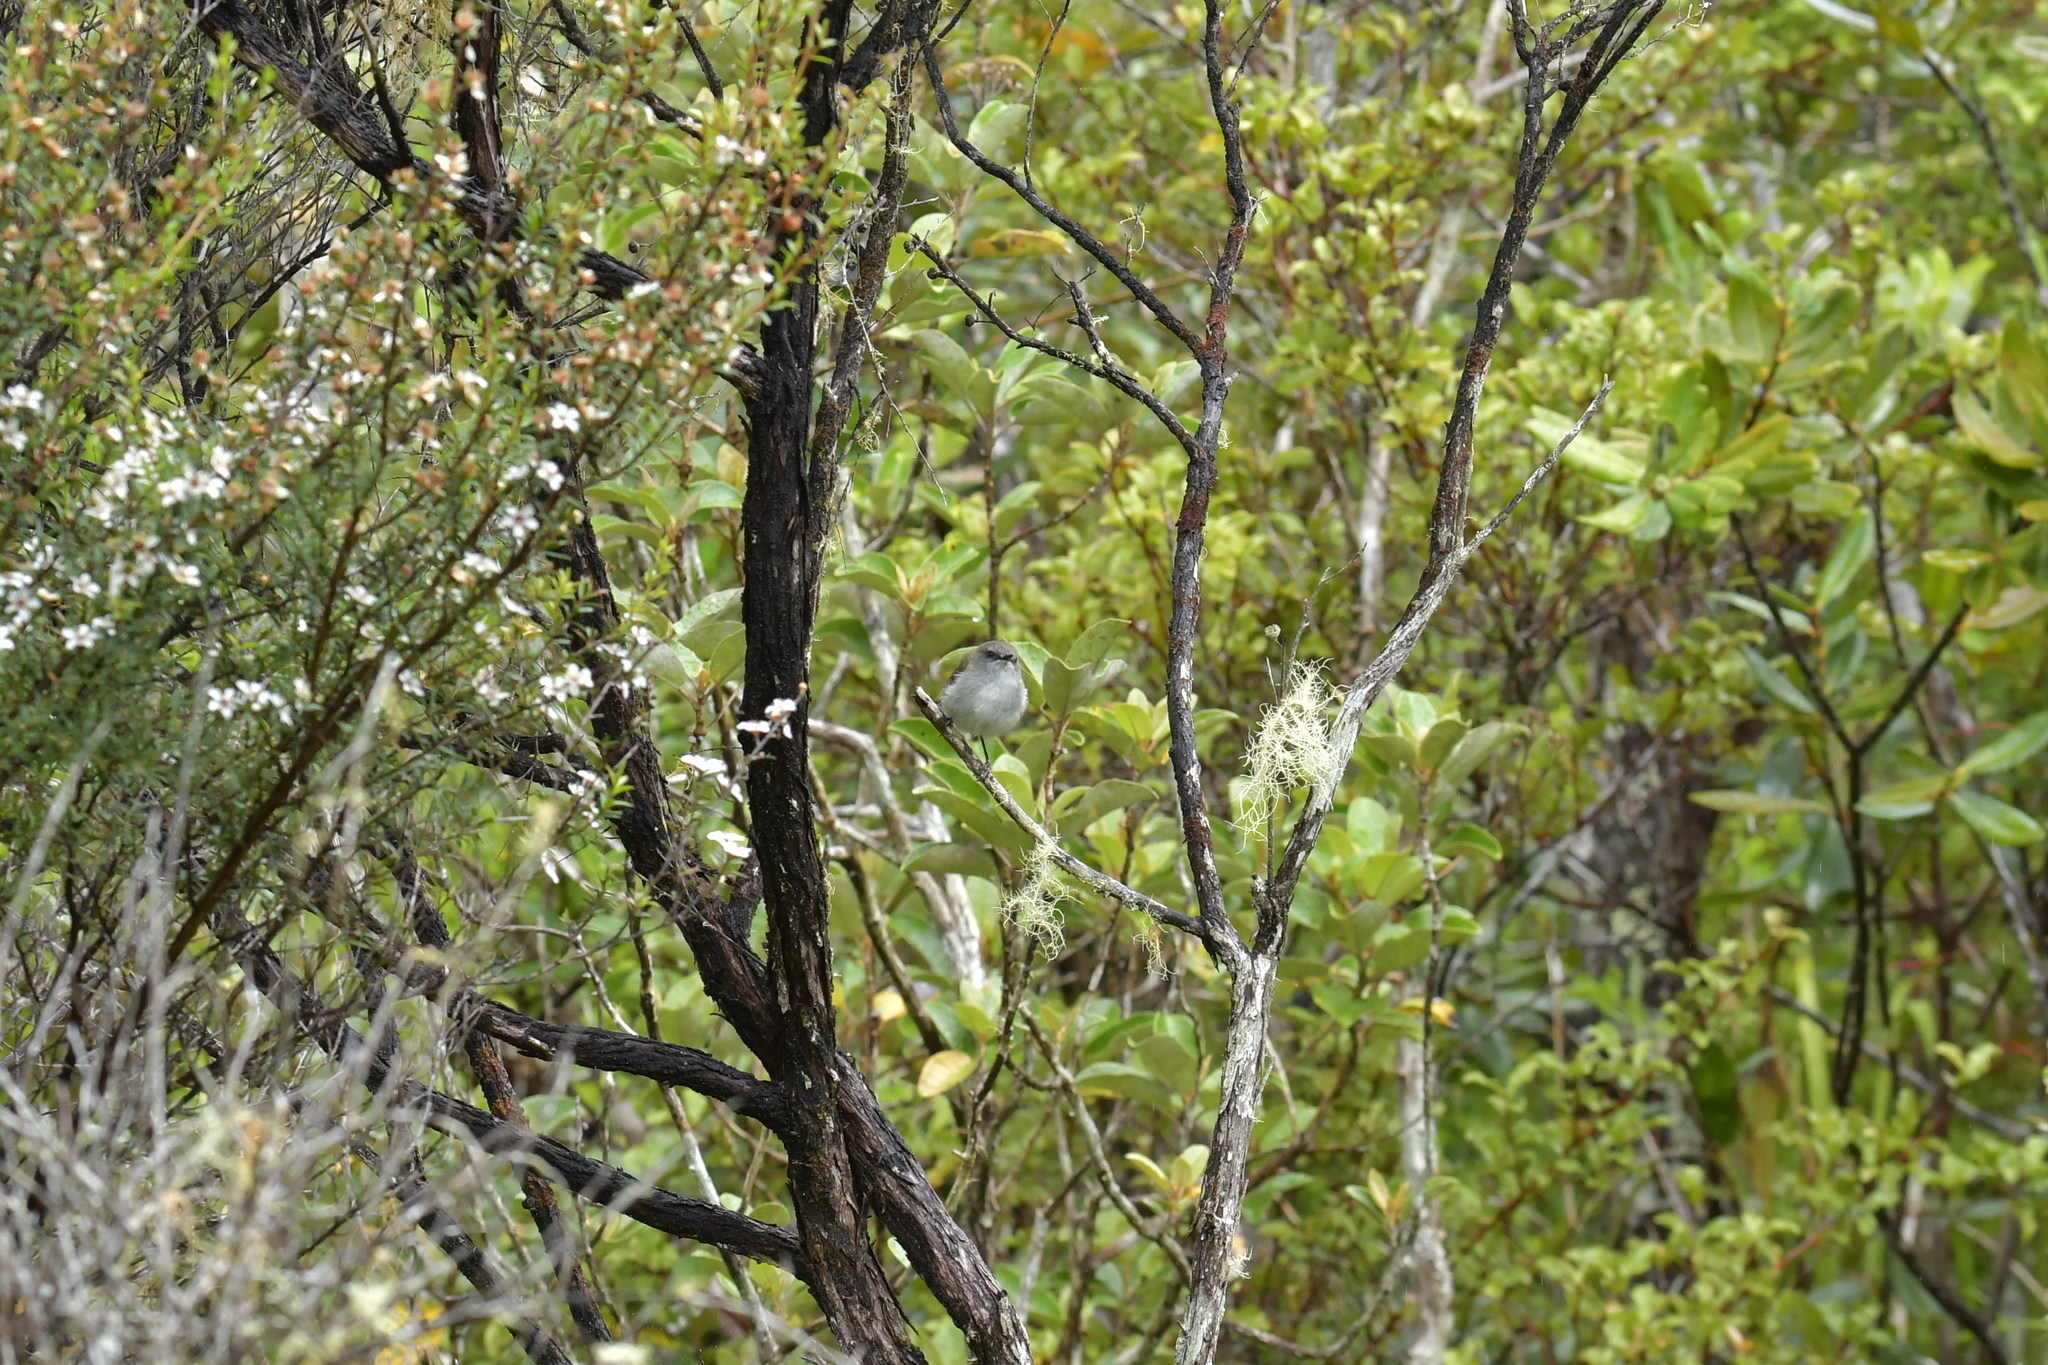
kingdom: Animalia
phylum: Chordata
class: Aves
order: Passeriformes
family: Acanthizidae
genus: Gerygone
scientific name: Gerygone igata
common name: Grey gerygone
